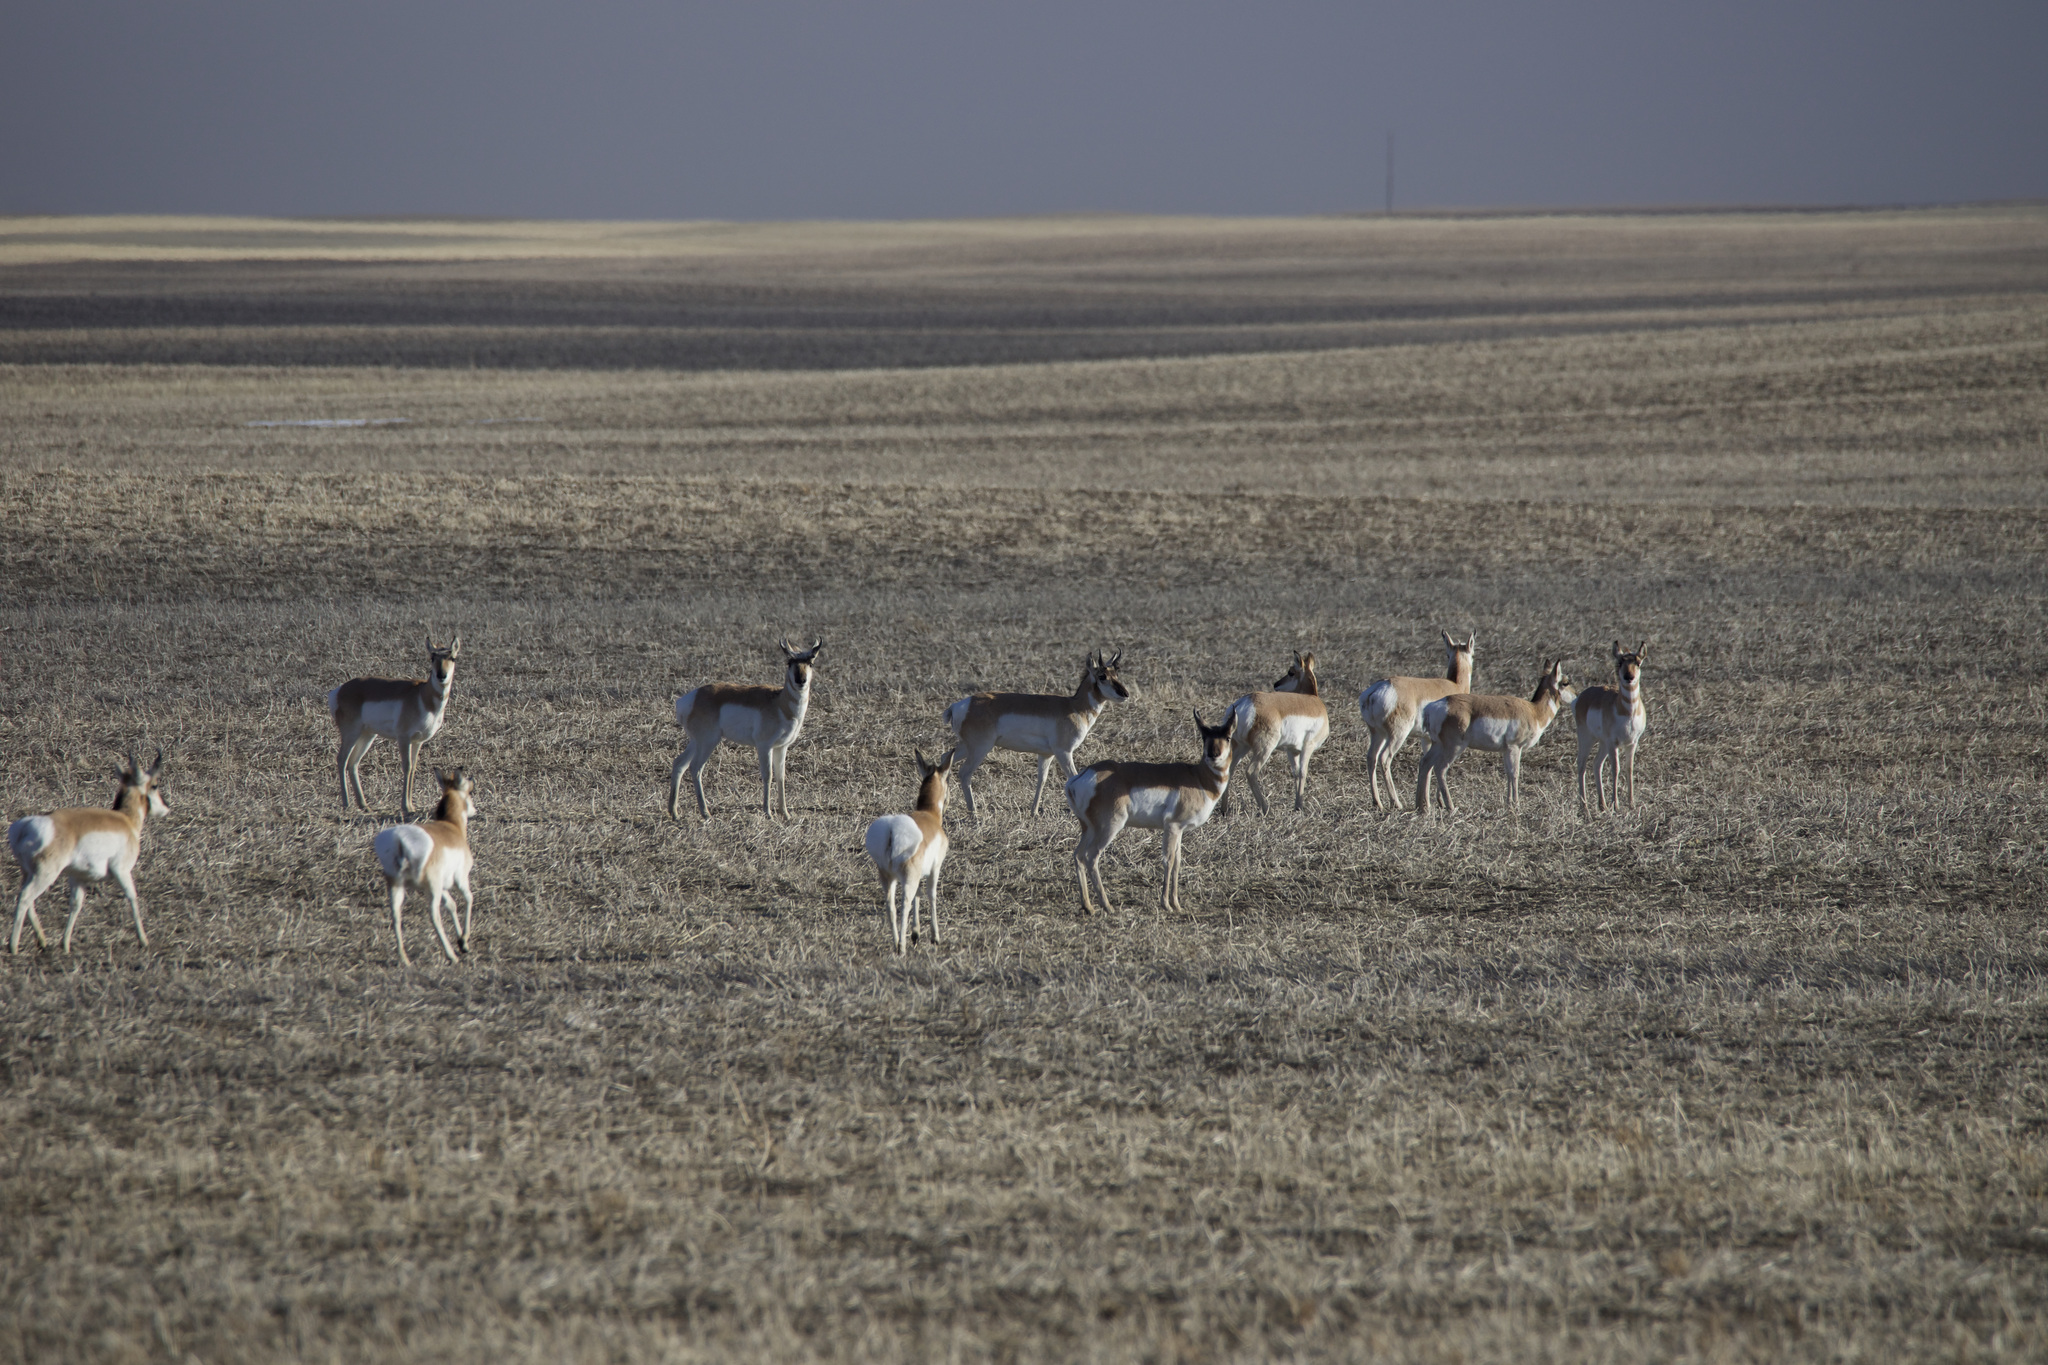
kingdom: Animalia
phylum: Chordata
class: Mammalia
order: Artiodactyla
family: Antilocapridae
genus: Antilocapra
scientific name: Antilocapra americana
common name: Pronghorn
